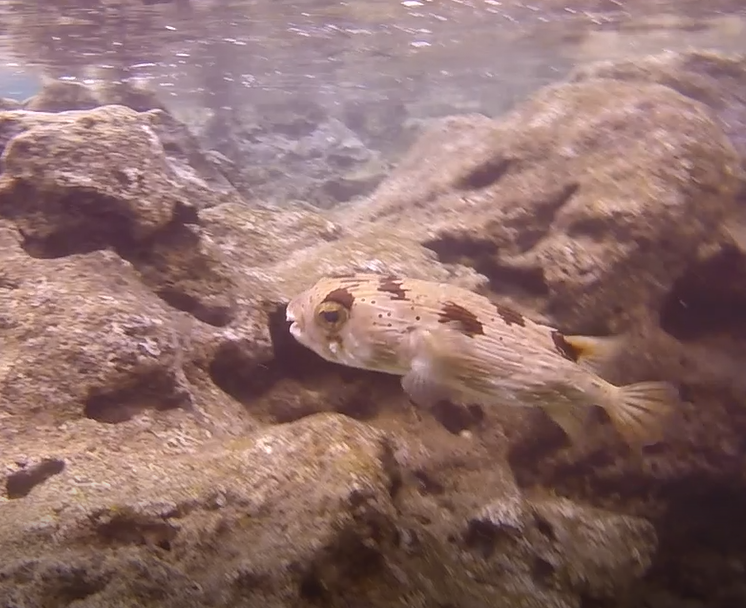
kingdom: Animalia
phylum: Chordata
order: Tetraodontiformes
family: Diodontidae
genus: Diodon
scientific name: Diodon holocanthus
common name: Balloonfish
